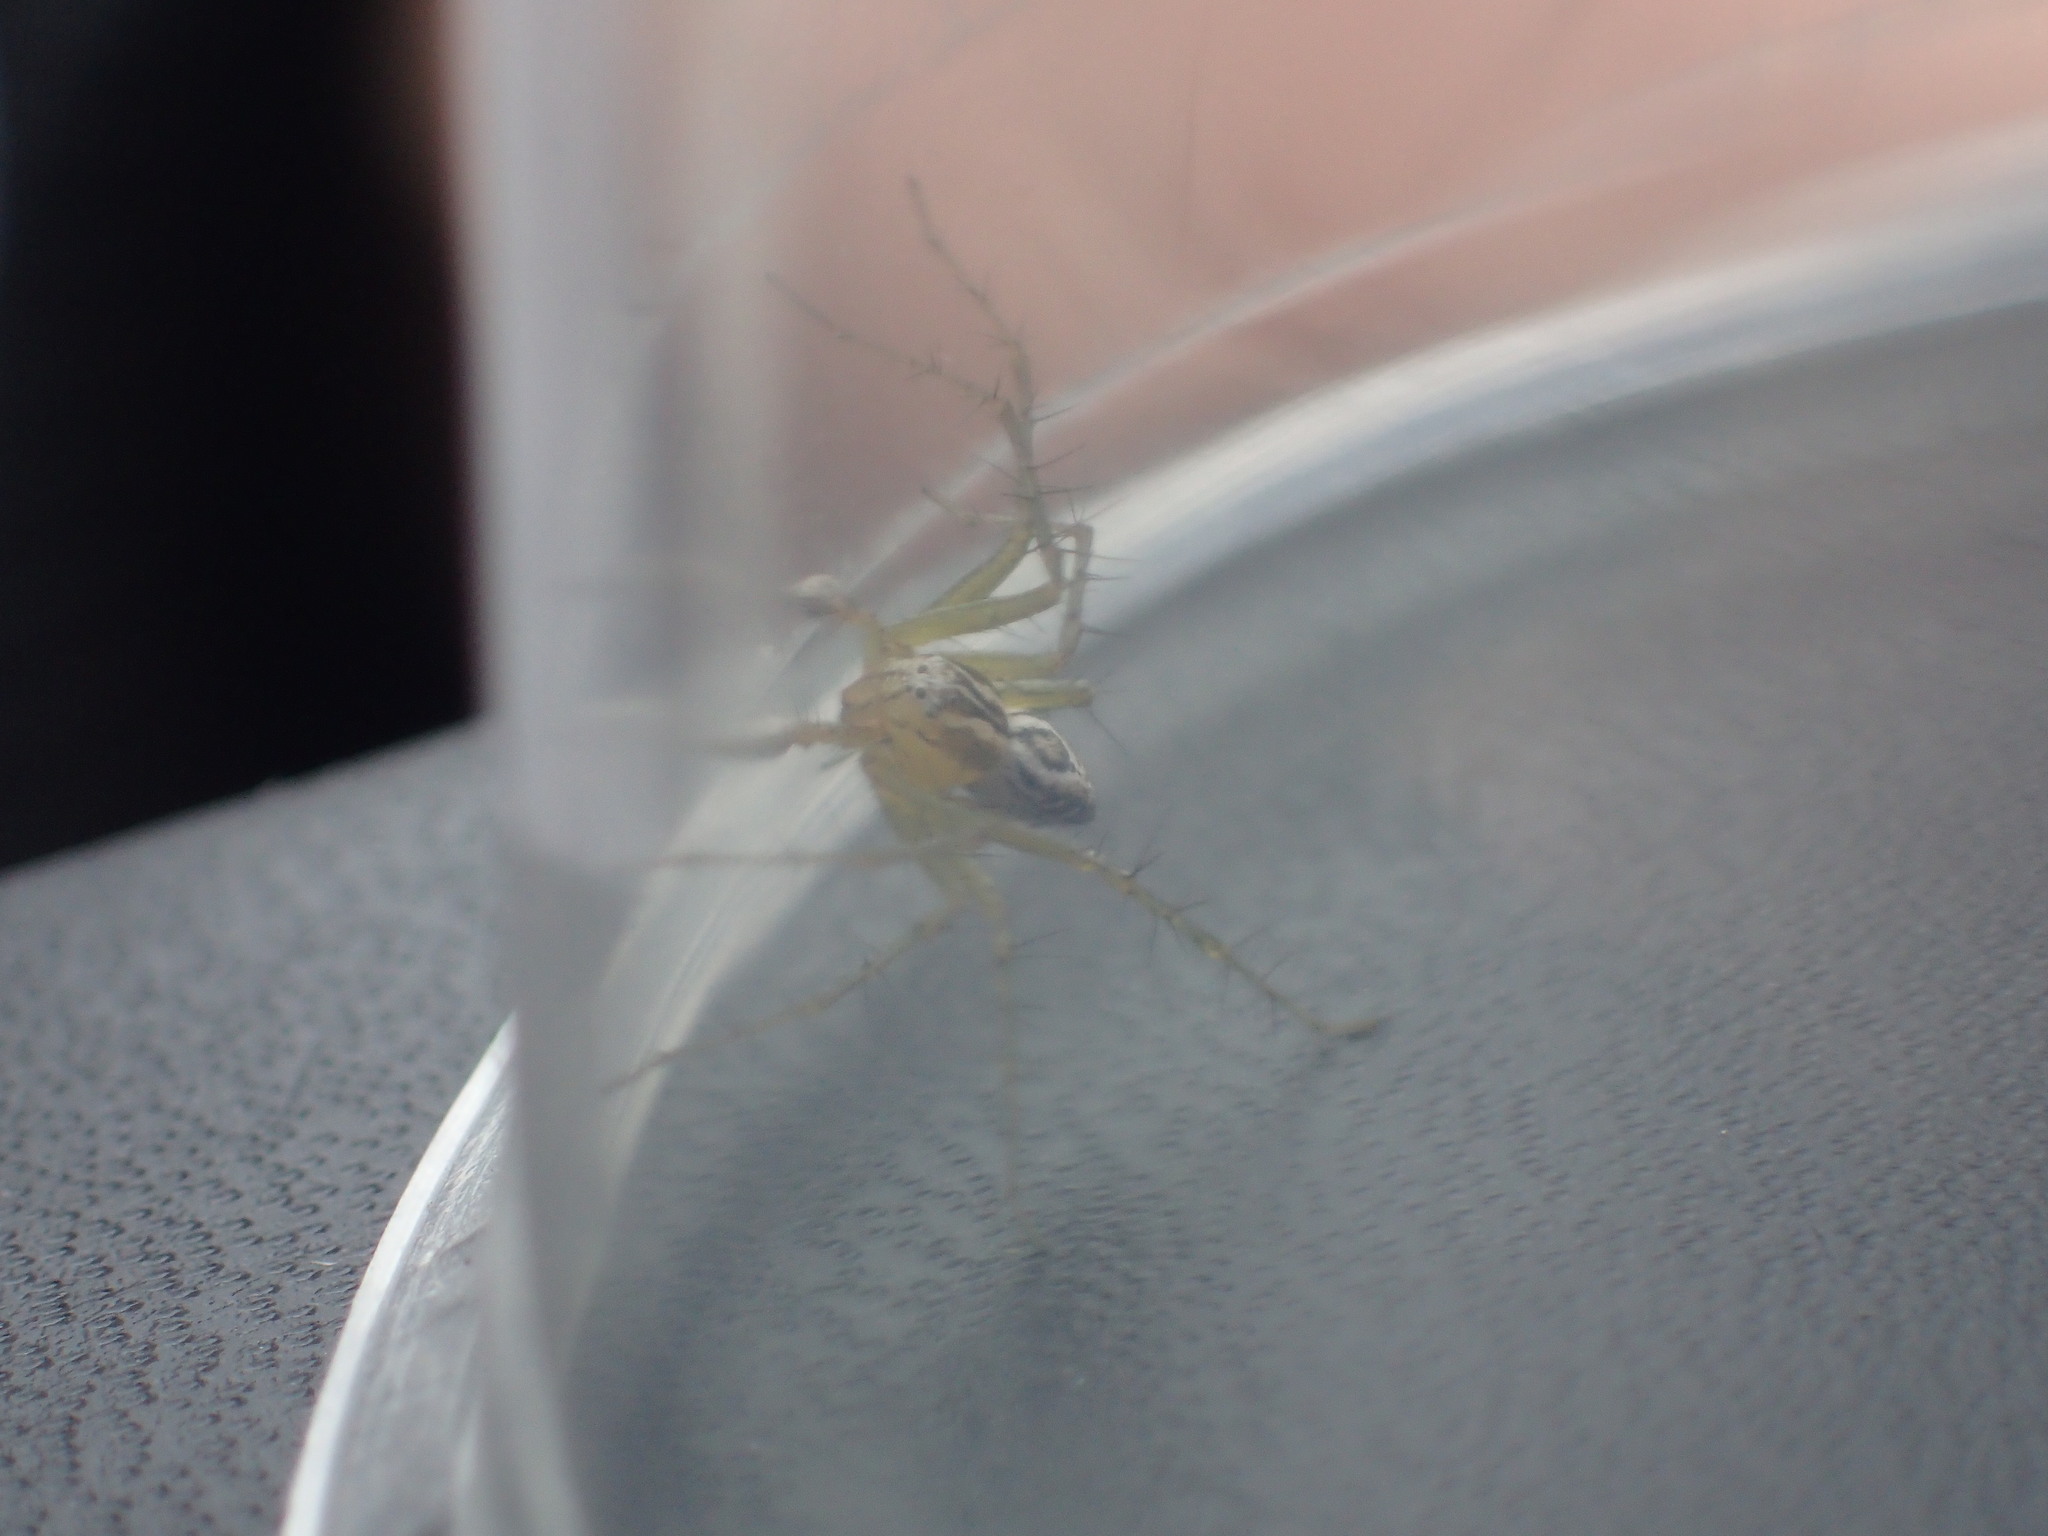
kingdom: Animalia
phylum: Arthropoda
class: Arachnida
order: Araneae
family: Oxyopidae
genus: Oxyopes
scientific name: Oxyopes lineatus
